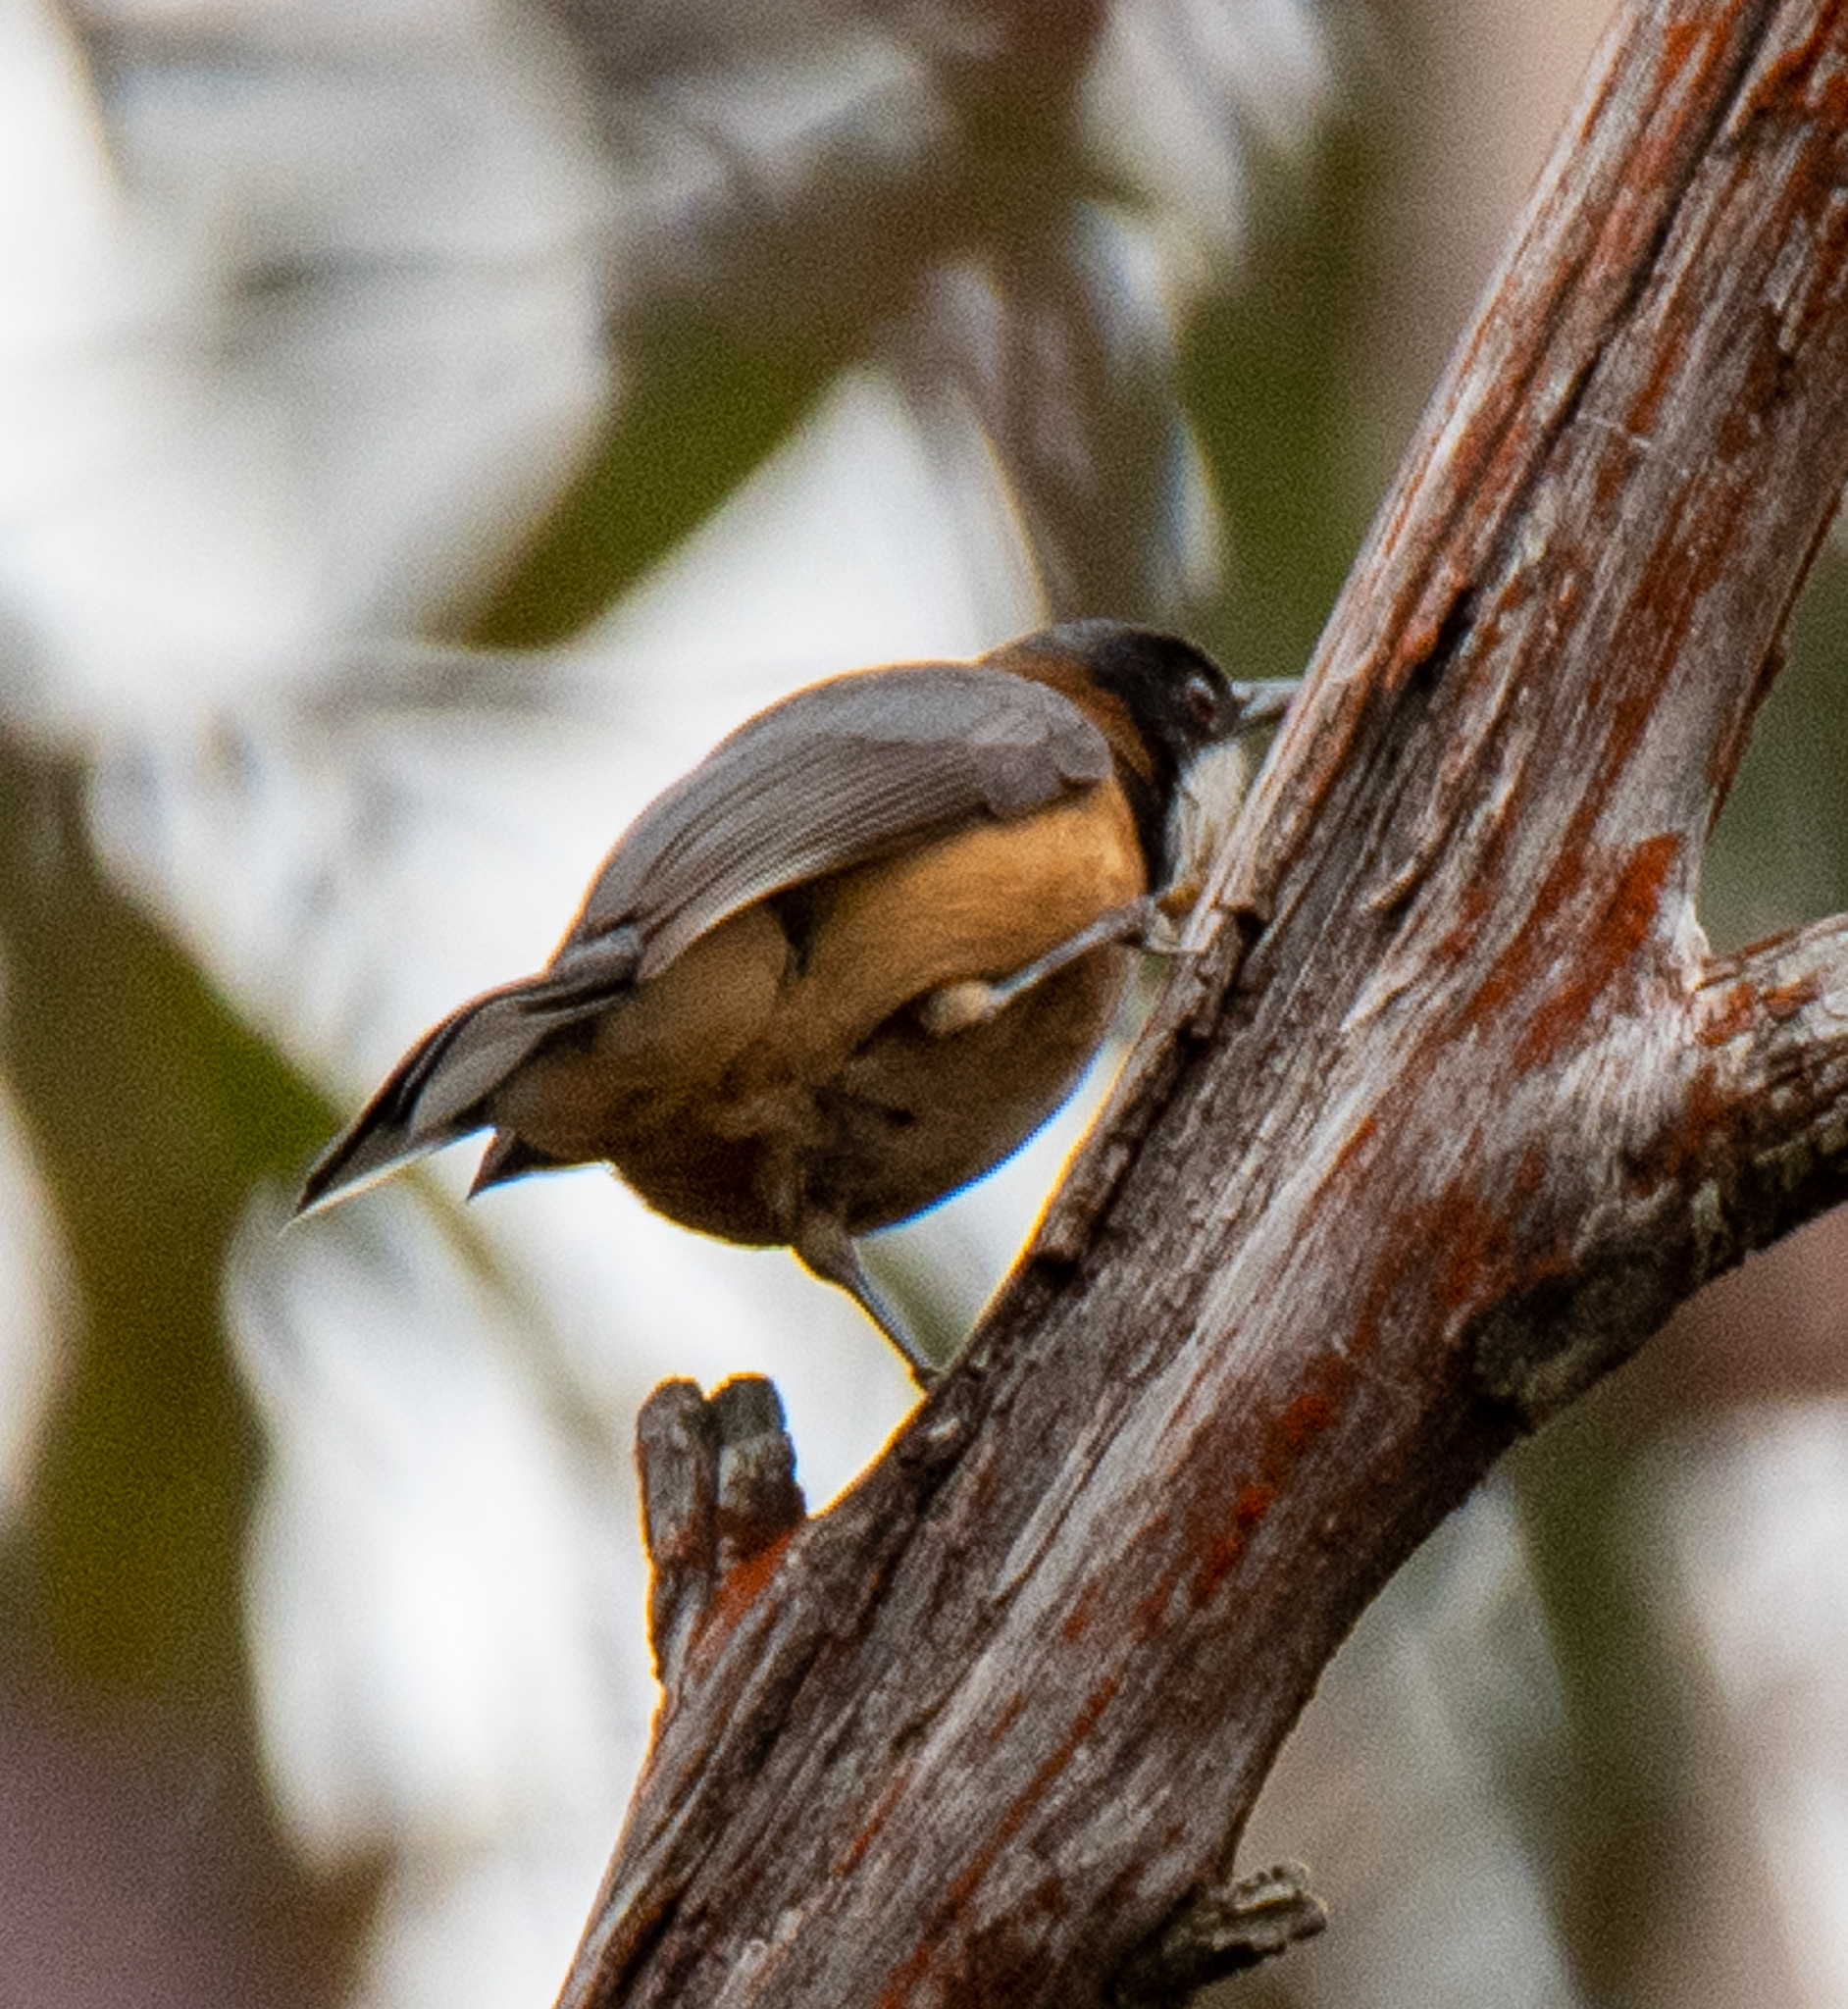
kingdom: Animalia
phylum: Chordata
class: Aves
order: Passeriformes
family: Meliphagidae
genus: Acanthorhynchus
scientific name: Acanthorhynchus tenuirostris
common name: Eastern spinebill
